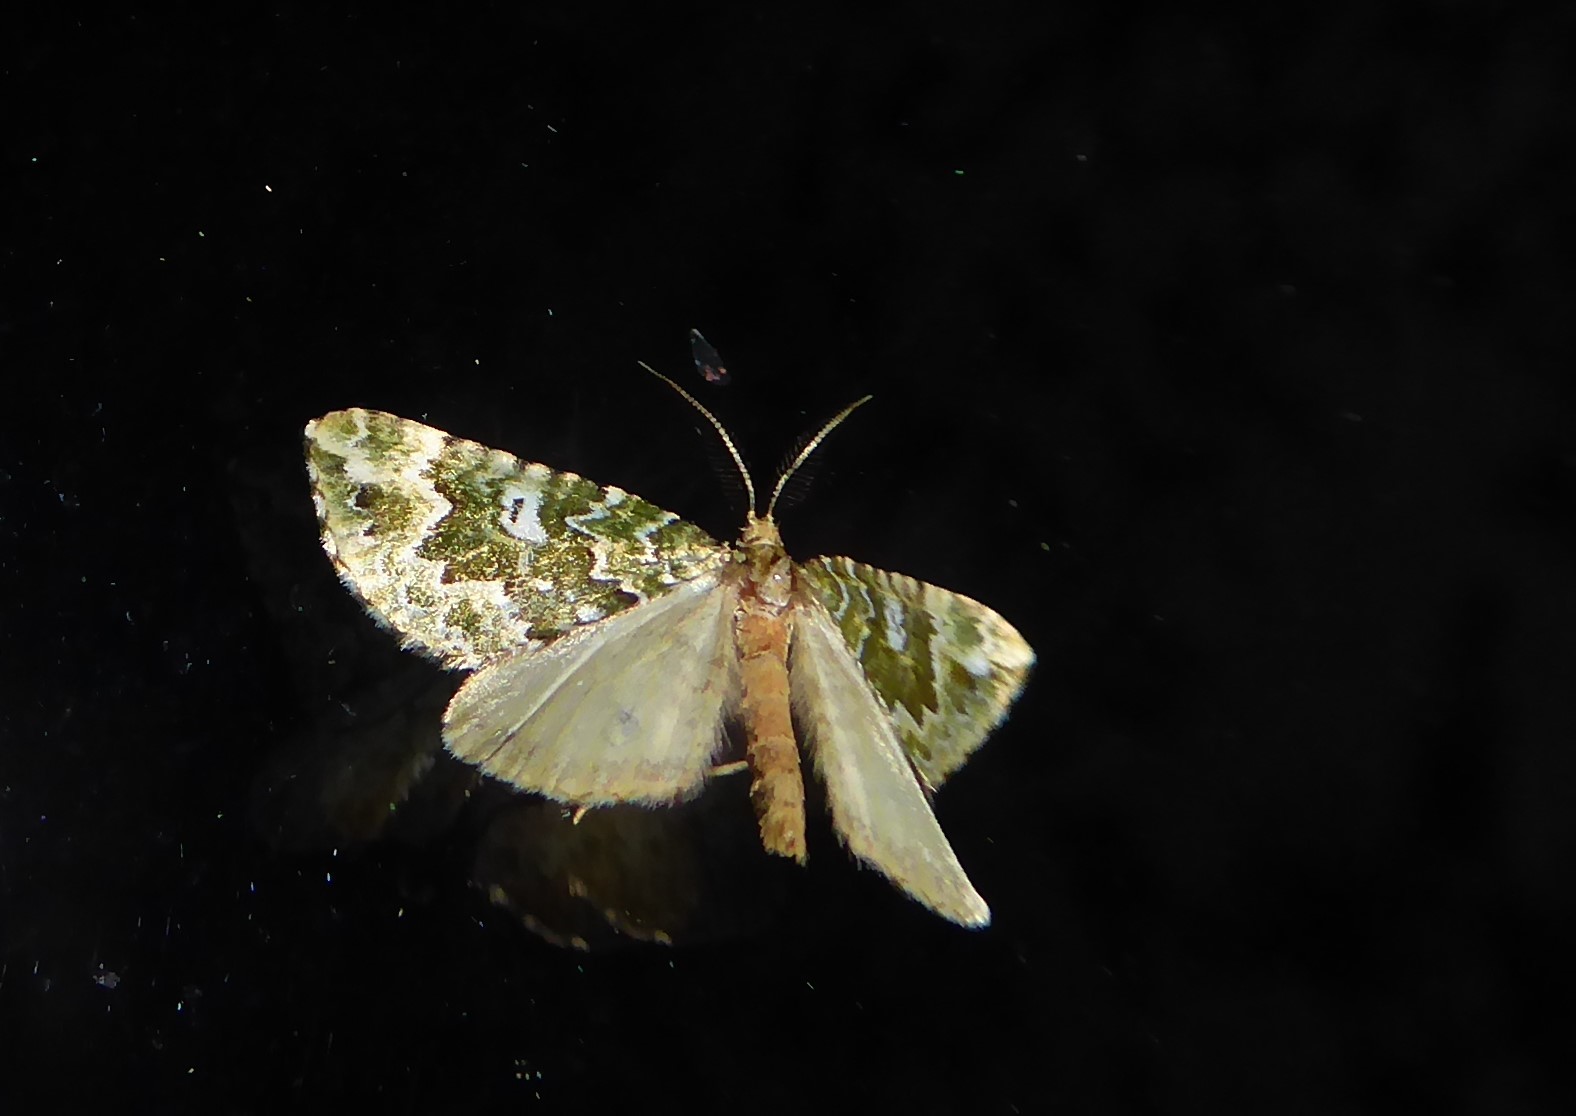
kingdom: Animalia
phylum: Arthropoda
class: Insecta
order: Lepidoptera
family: Geometridae
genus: Asaphodes
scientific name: Asaphodes beata
